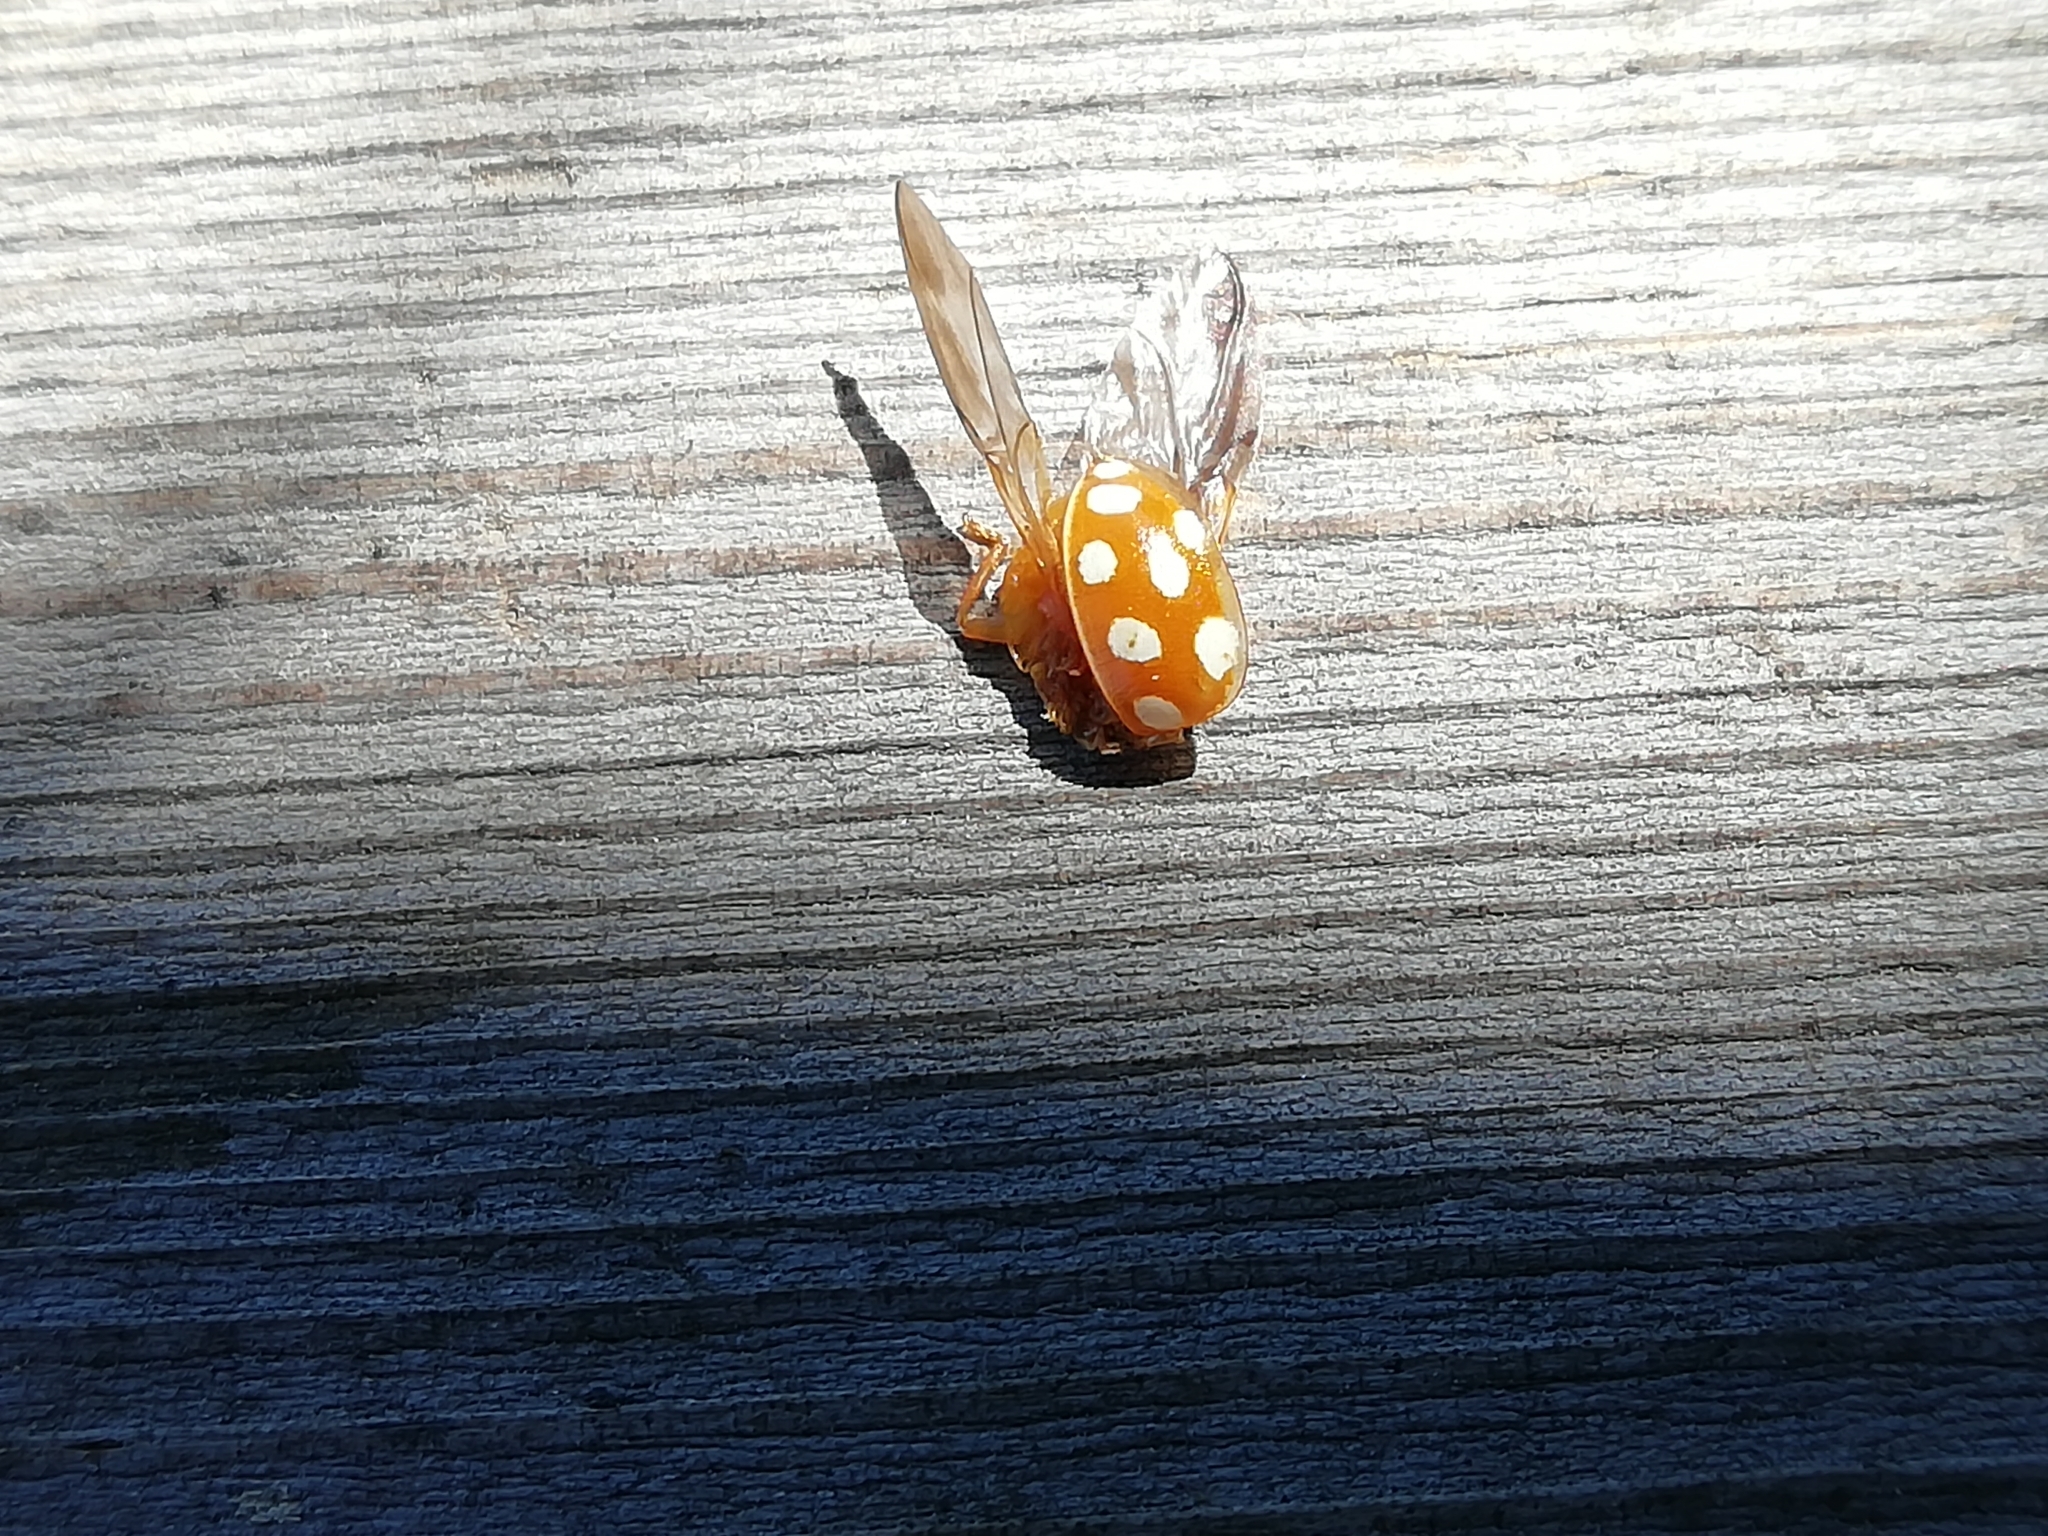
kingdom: Animalia
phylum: Arthropoda
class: Insecta
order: Coleoptera
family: Coccinellidae
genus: Halyzia
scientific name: Halyzia sedecimguttata
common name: Orange ladybird
